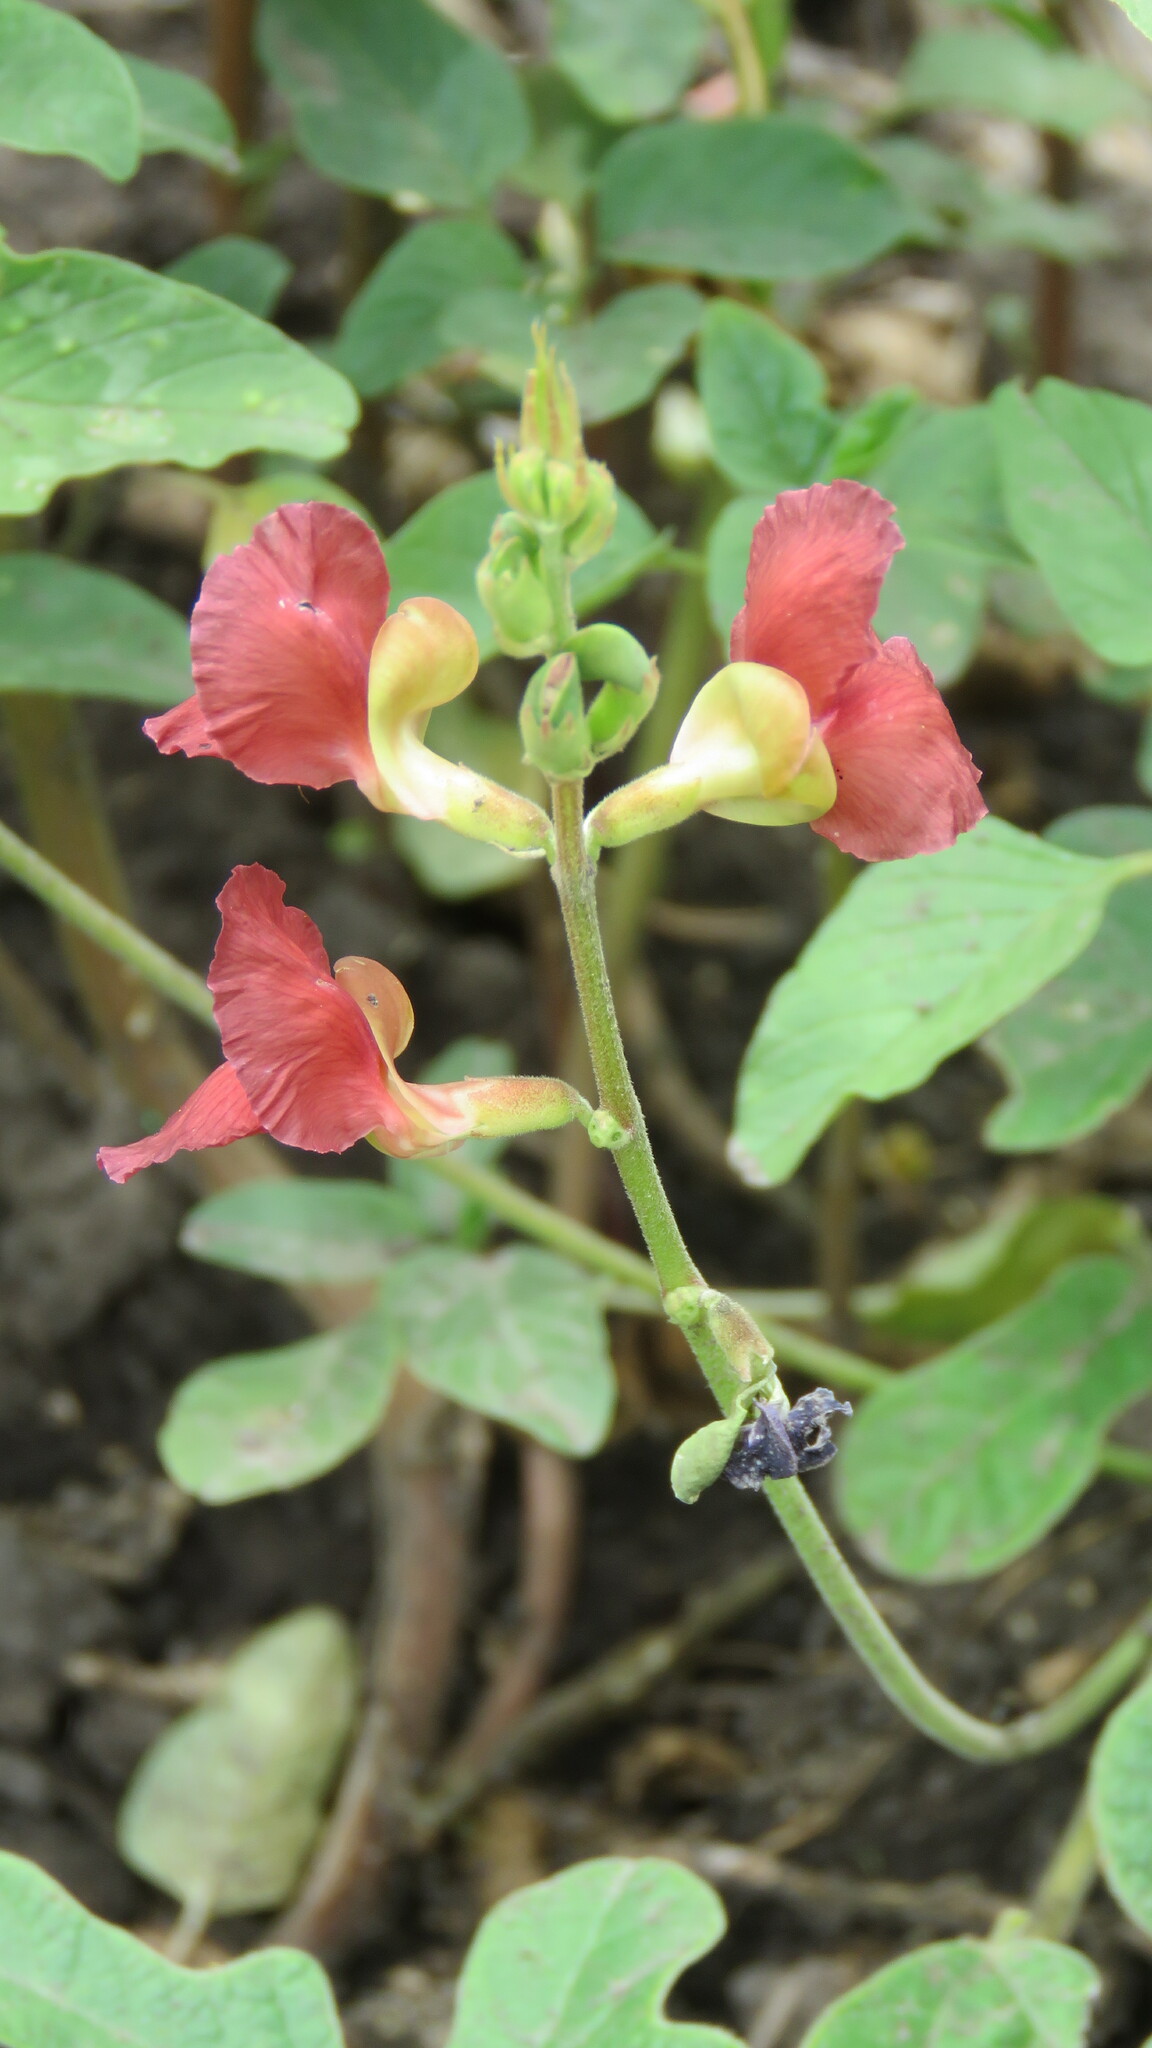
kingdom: Plantae
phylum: Tracheophyta
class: Magnoliopsida
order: Fabales
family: Fabaceae
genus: Macroptilium
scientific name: Macroptilium lathyroides
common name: Wild bushbean
